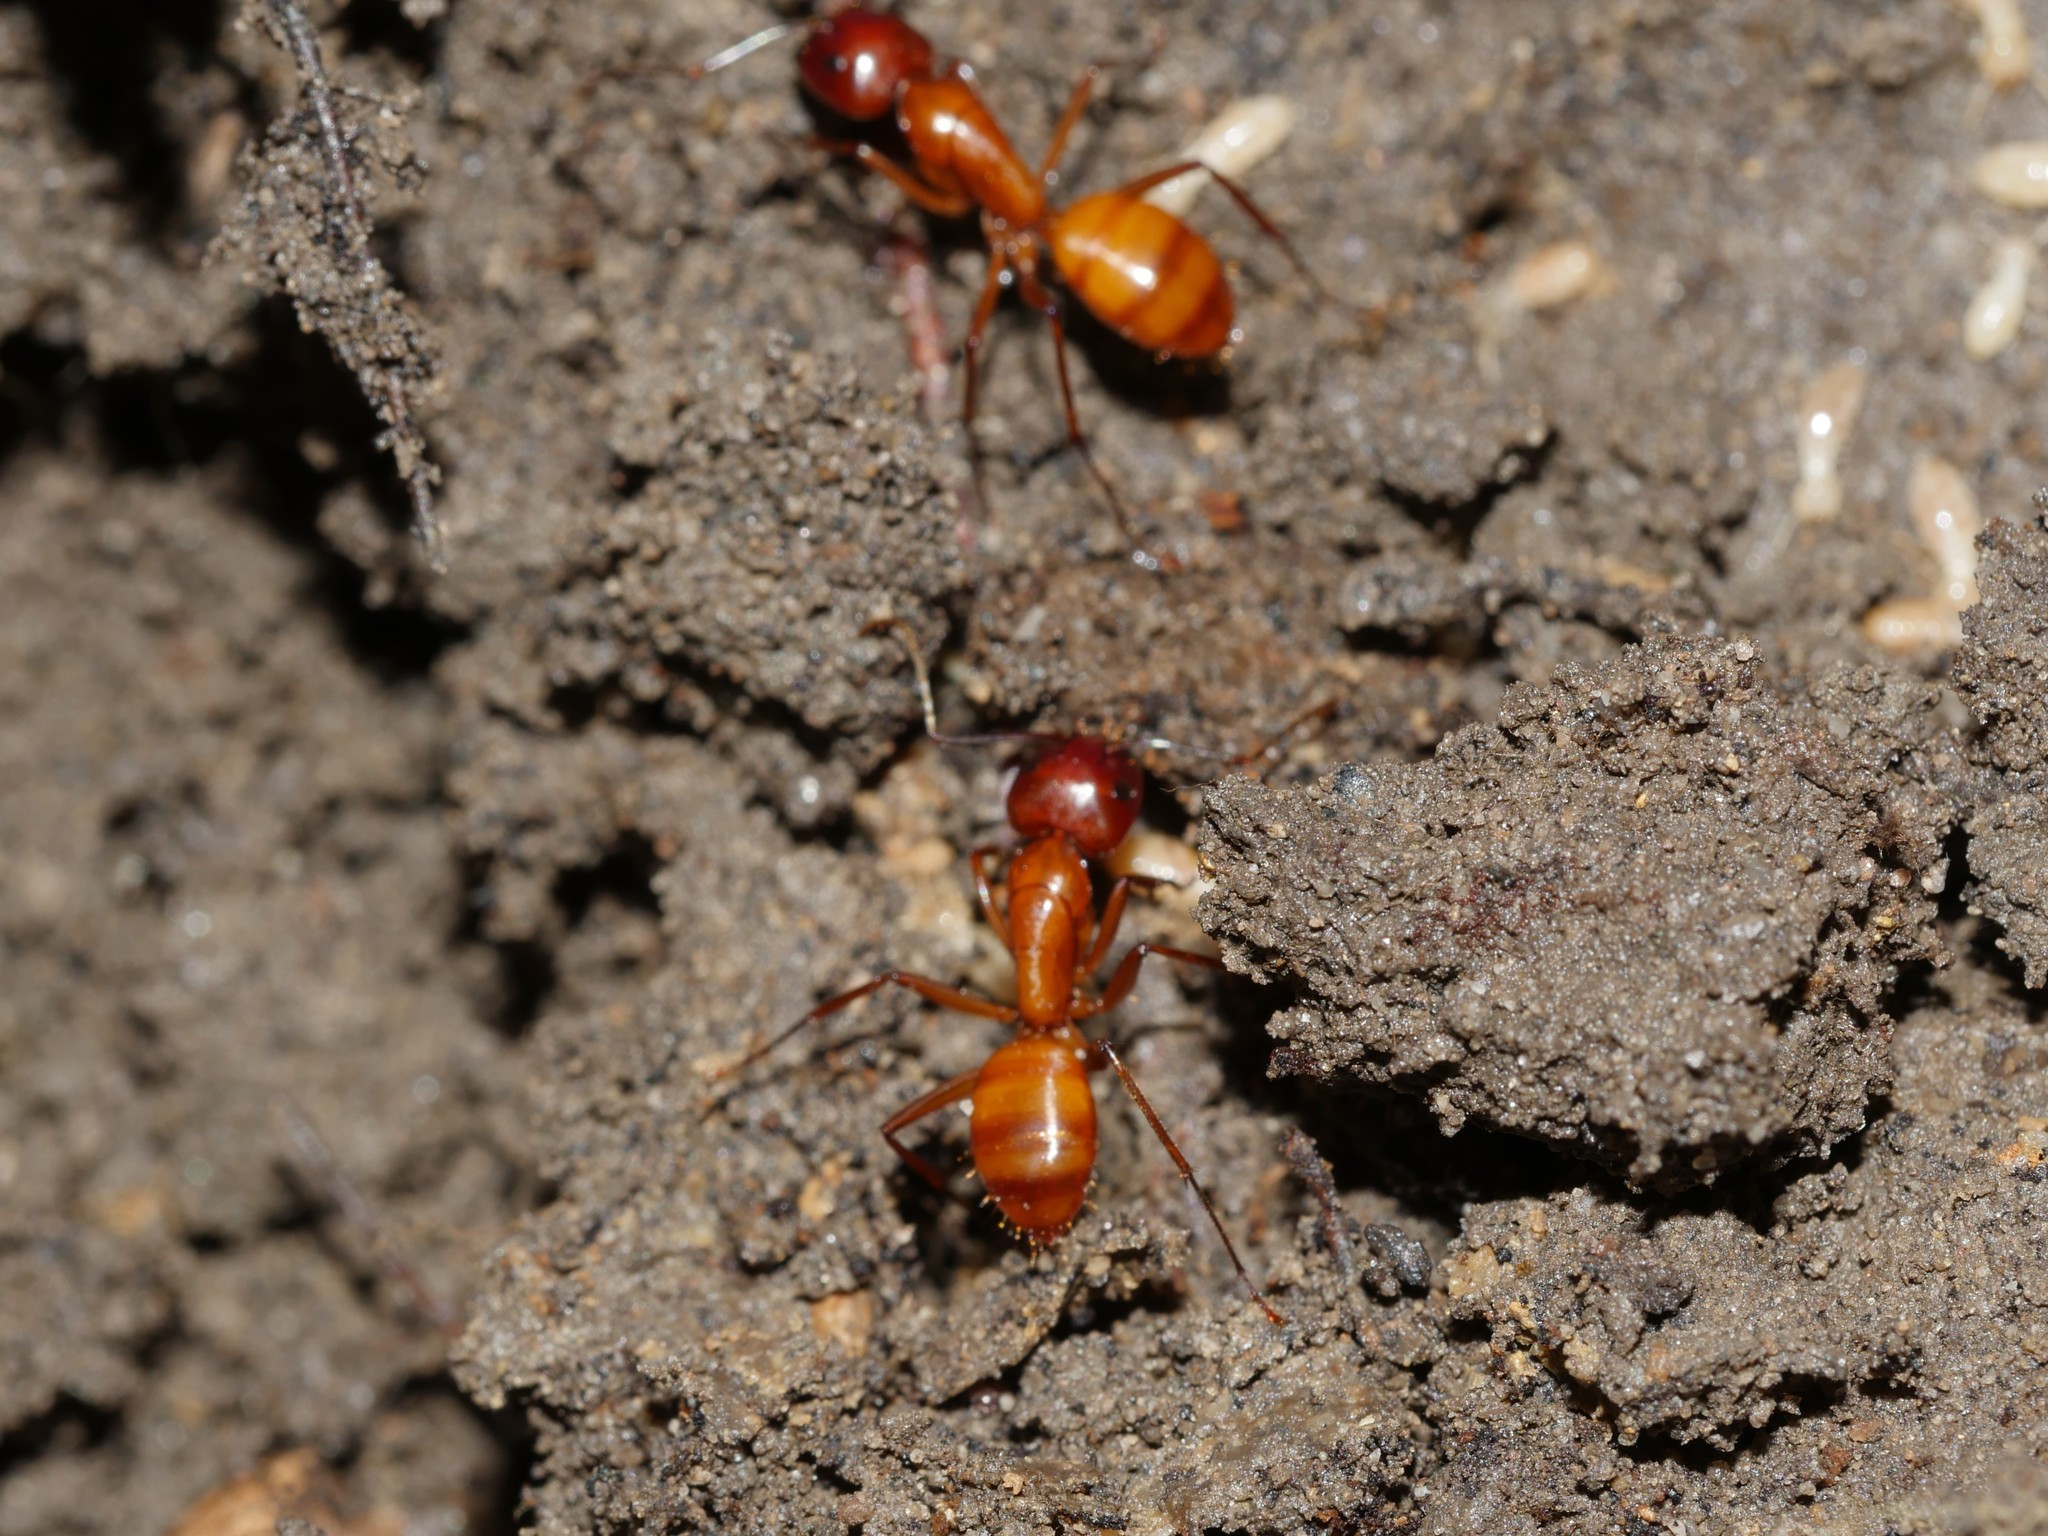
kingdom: Animalia
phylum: Arthropoda
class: Insecta
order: Hymenoptera
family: Formicidae
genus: Camponotus
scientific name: Camponotus castaneus
